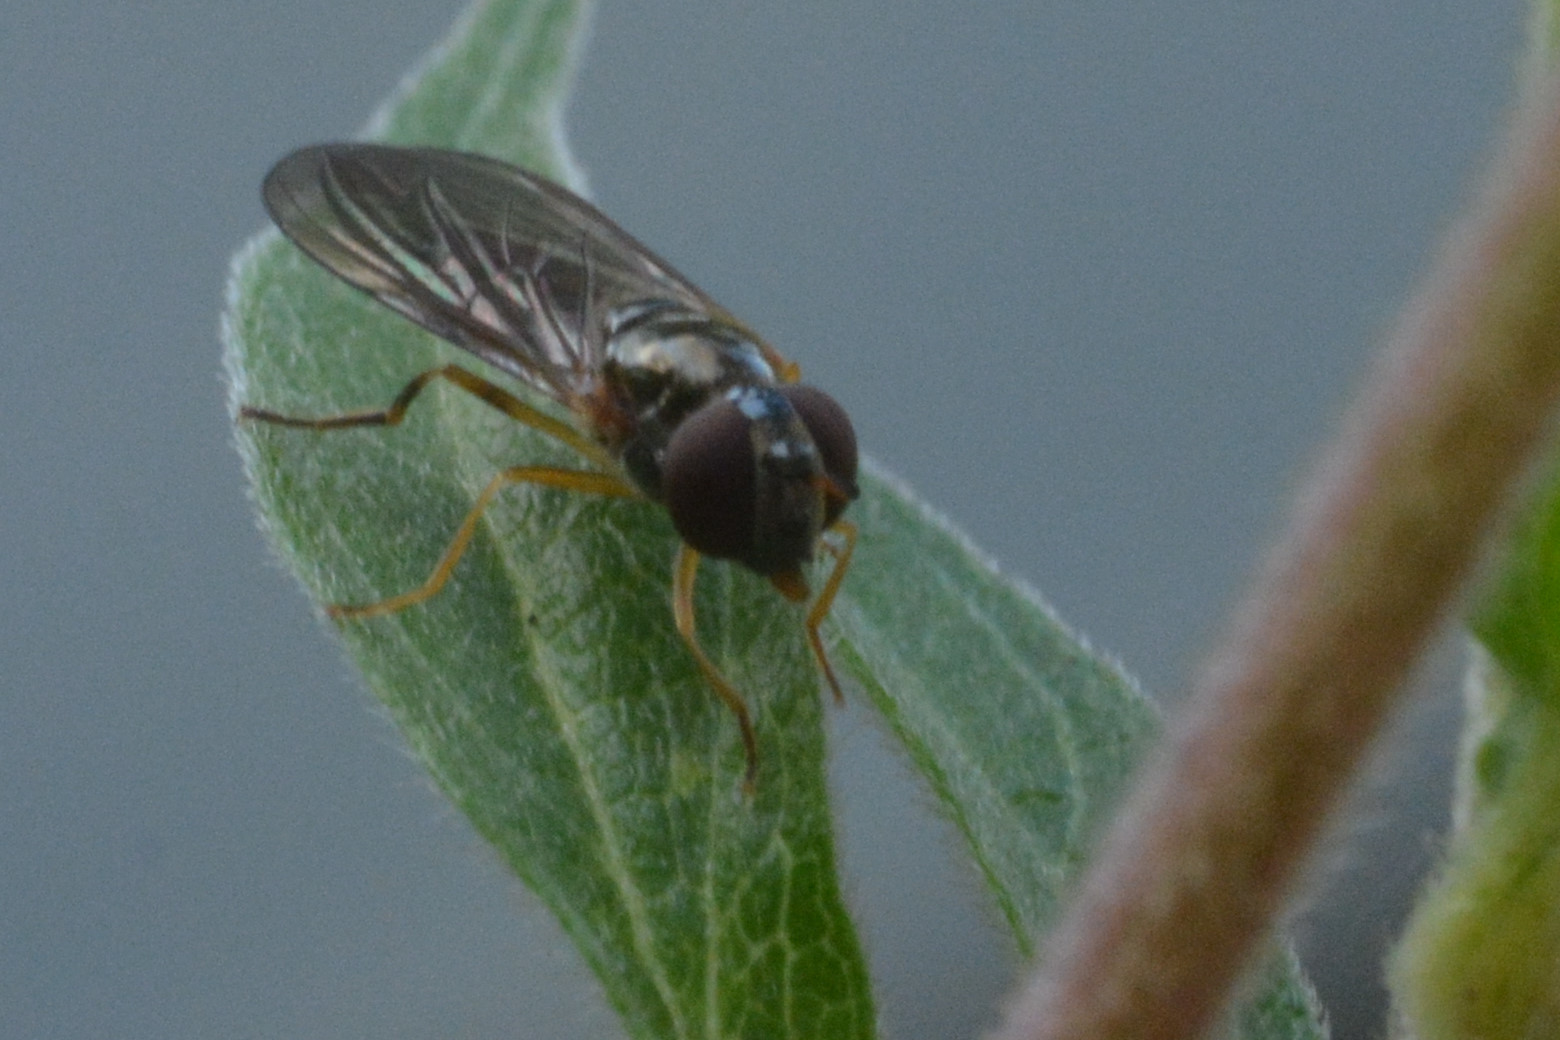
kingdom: Animalia
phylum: Arthropoda
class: Insecta
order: Diptera
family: Syrphidae
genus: Melanostoma
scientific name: Melanostoma scalare
